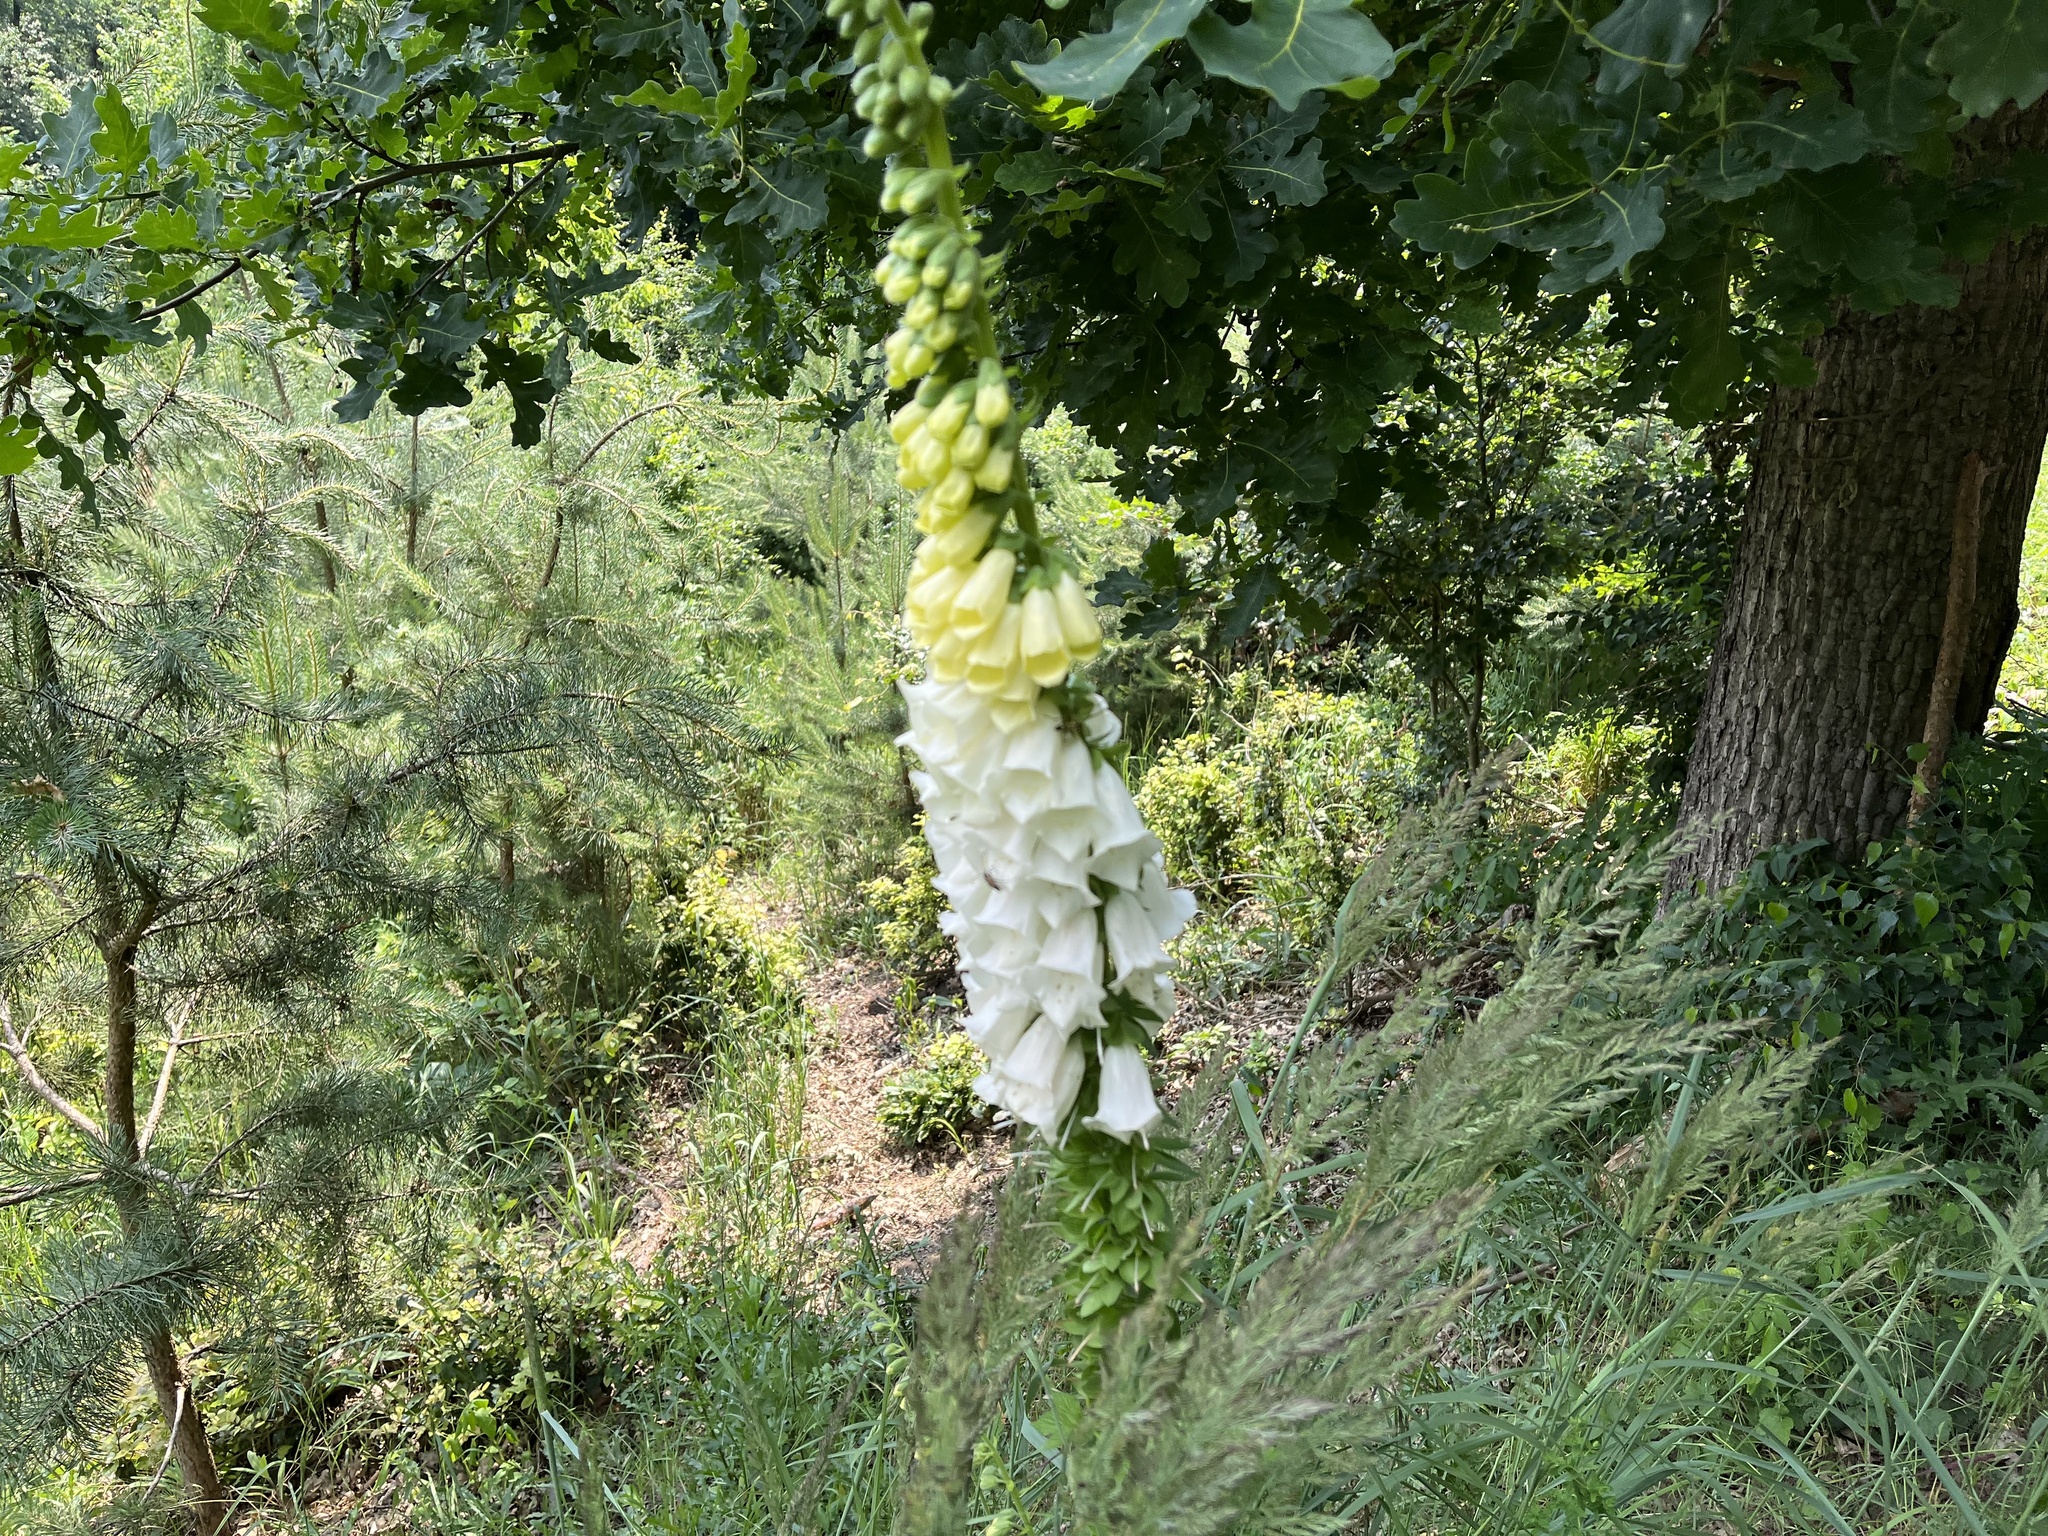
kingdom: Plantae
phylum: Tracheophyta
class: Magnoliopsida
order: Lamiales
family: Plantaginaceae
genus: Digitalis
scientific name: Digitalis purpurea
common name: Foxglove
